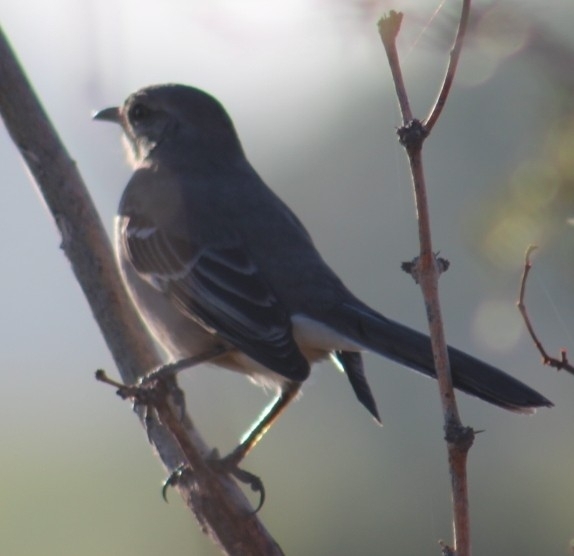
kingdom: Animalia
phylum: Chordata
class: Aves
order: Passeriformes
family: Mimidae
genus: Mimus
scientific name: Mimus polyglottos
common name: Northern mockingbird
